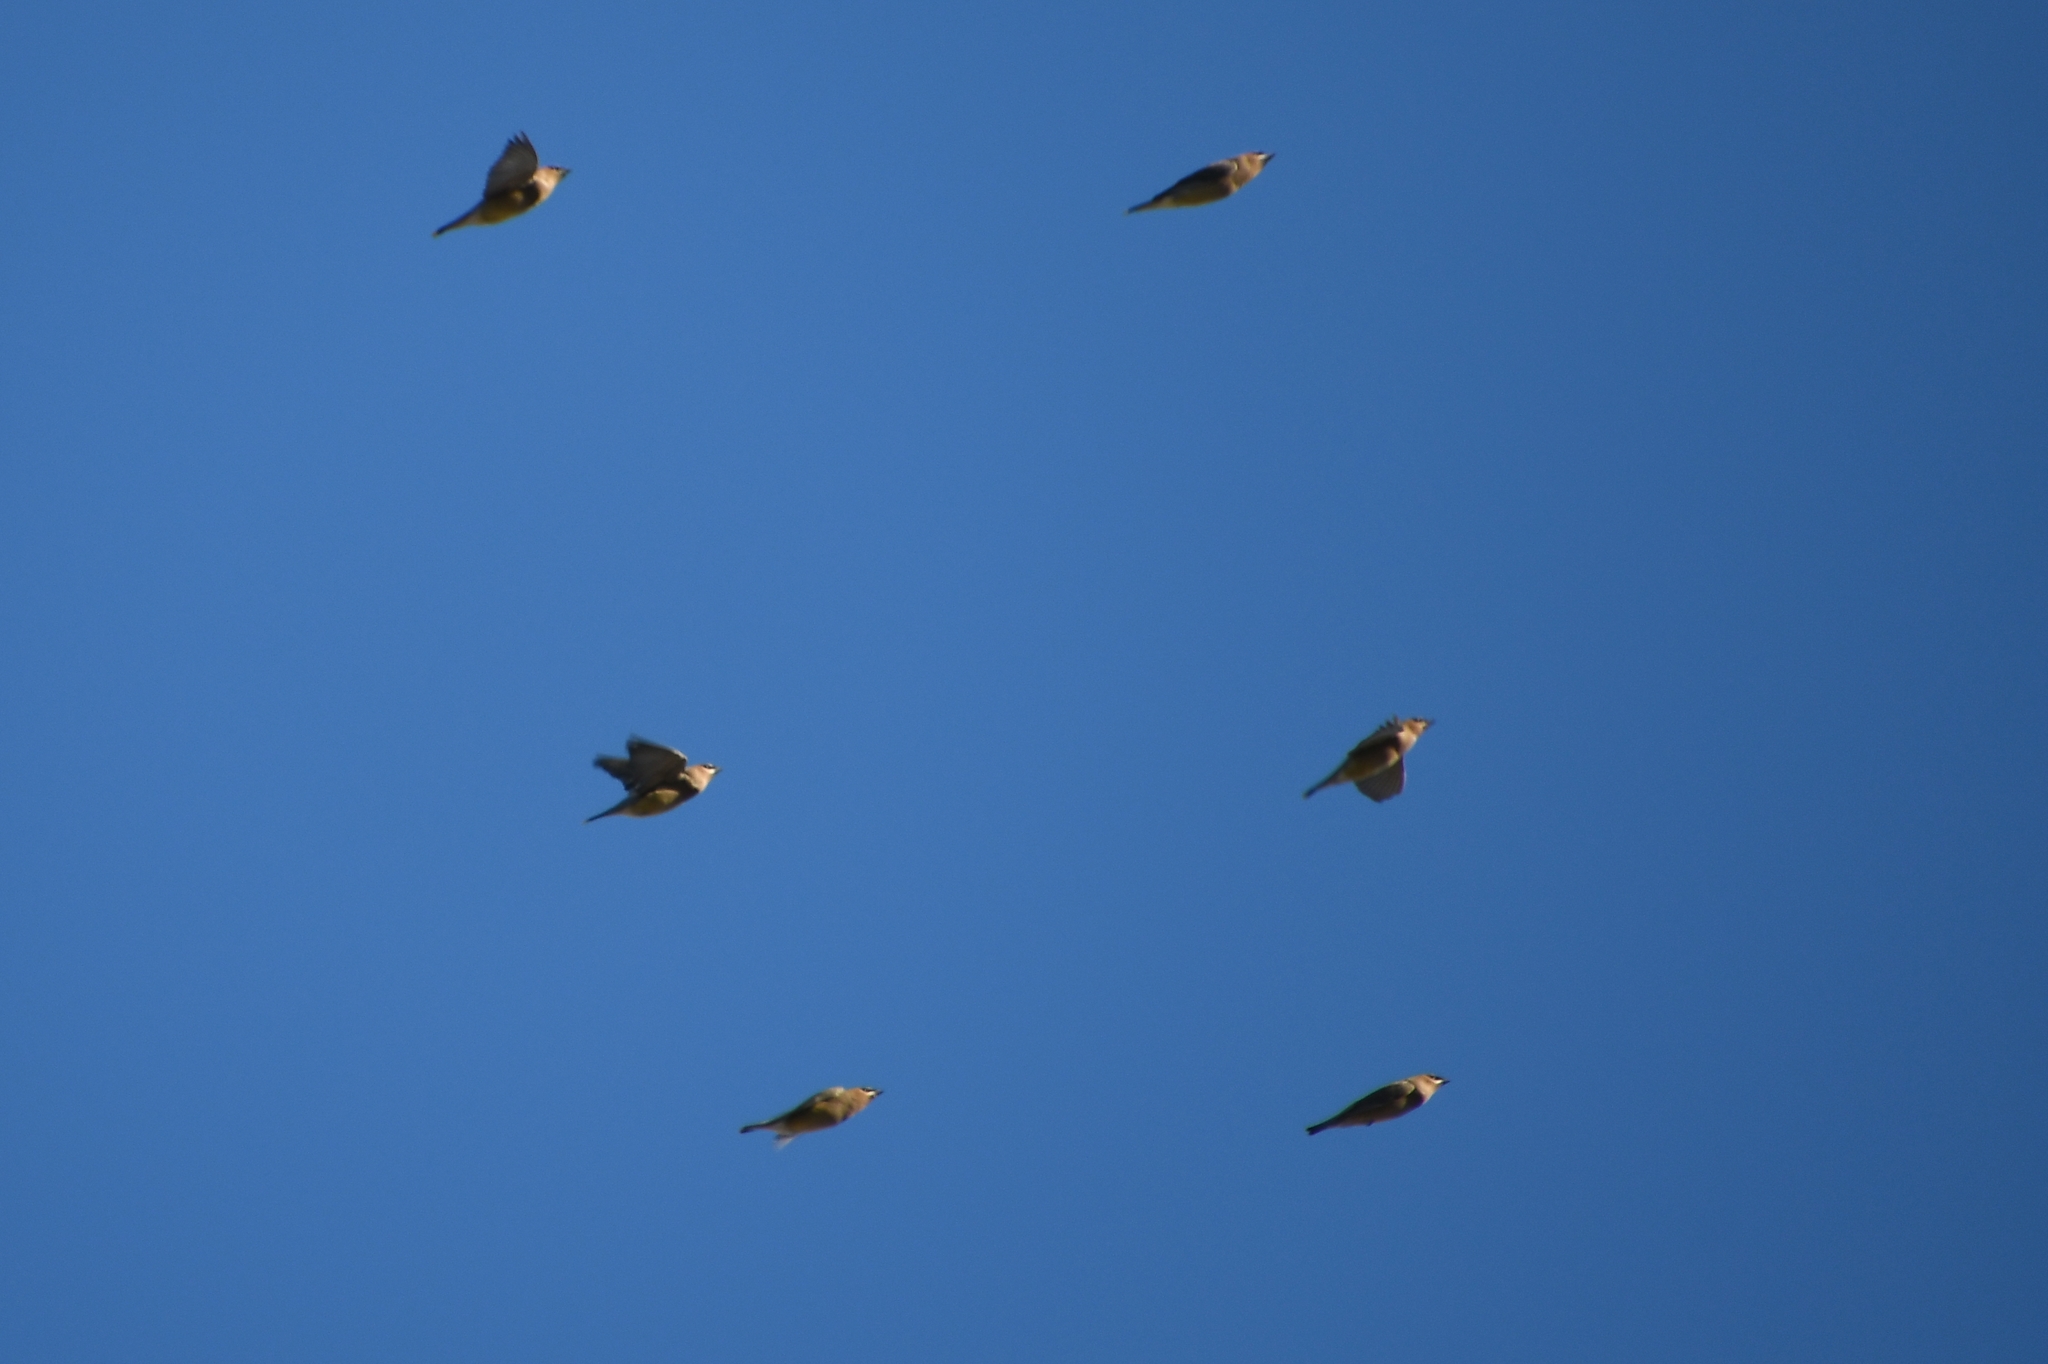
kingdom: Animalia
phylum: Chordata
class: Aves
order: Passeriformes
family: Bombycillidae
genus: Bombycilla
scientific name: Bombycilla cedrorum
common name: Cedar waxwing
